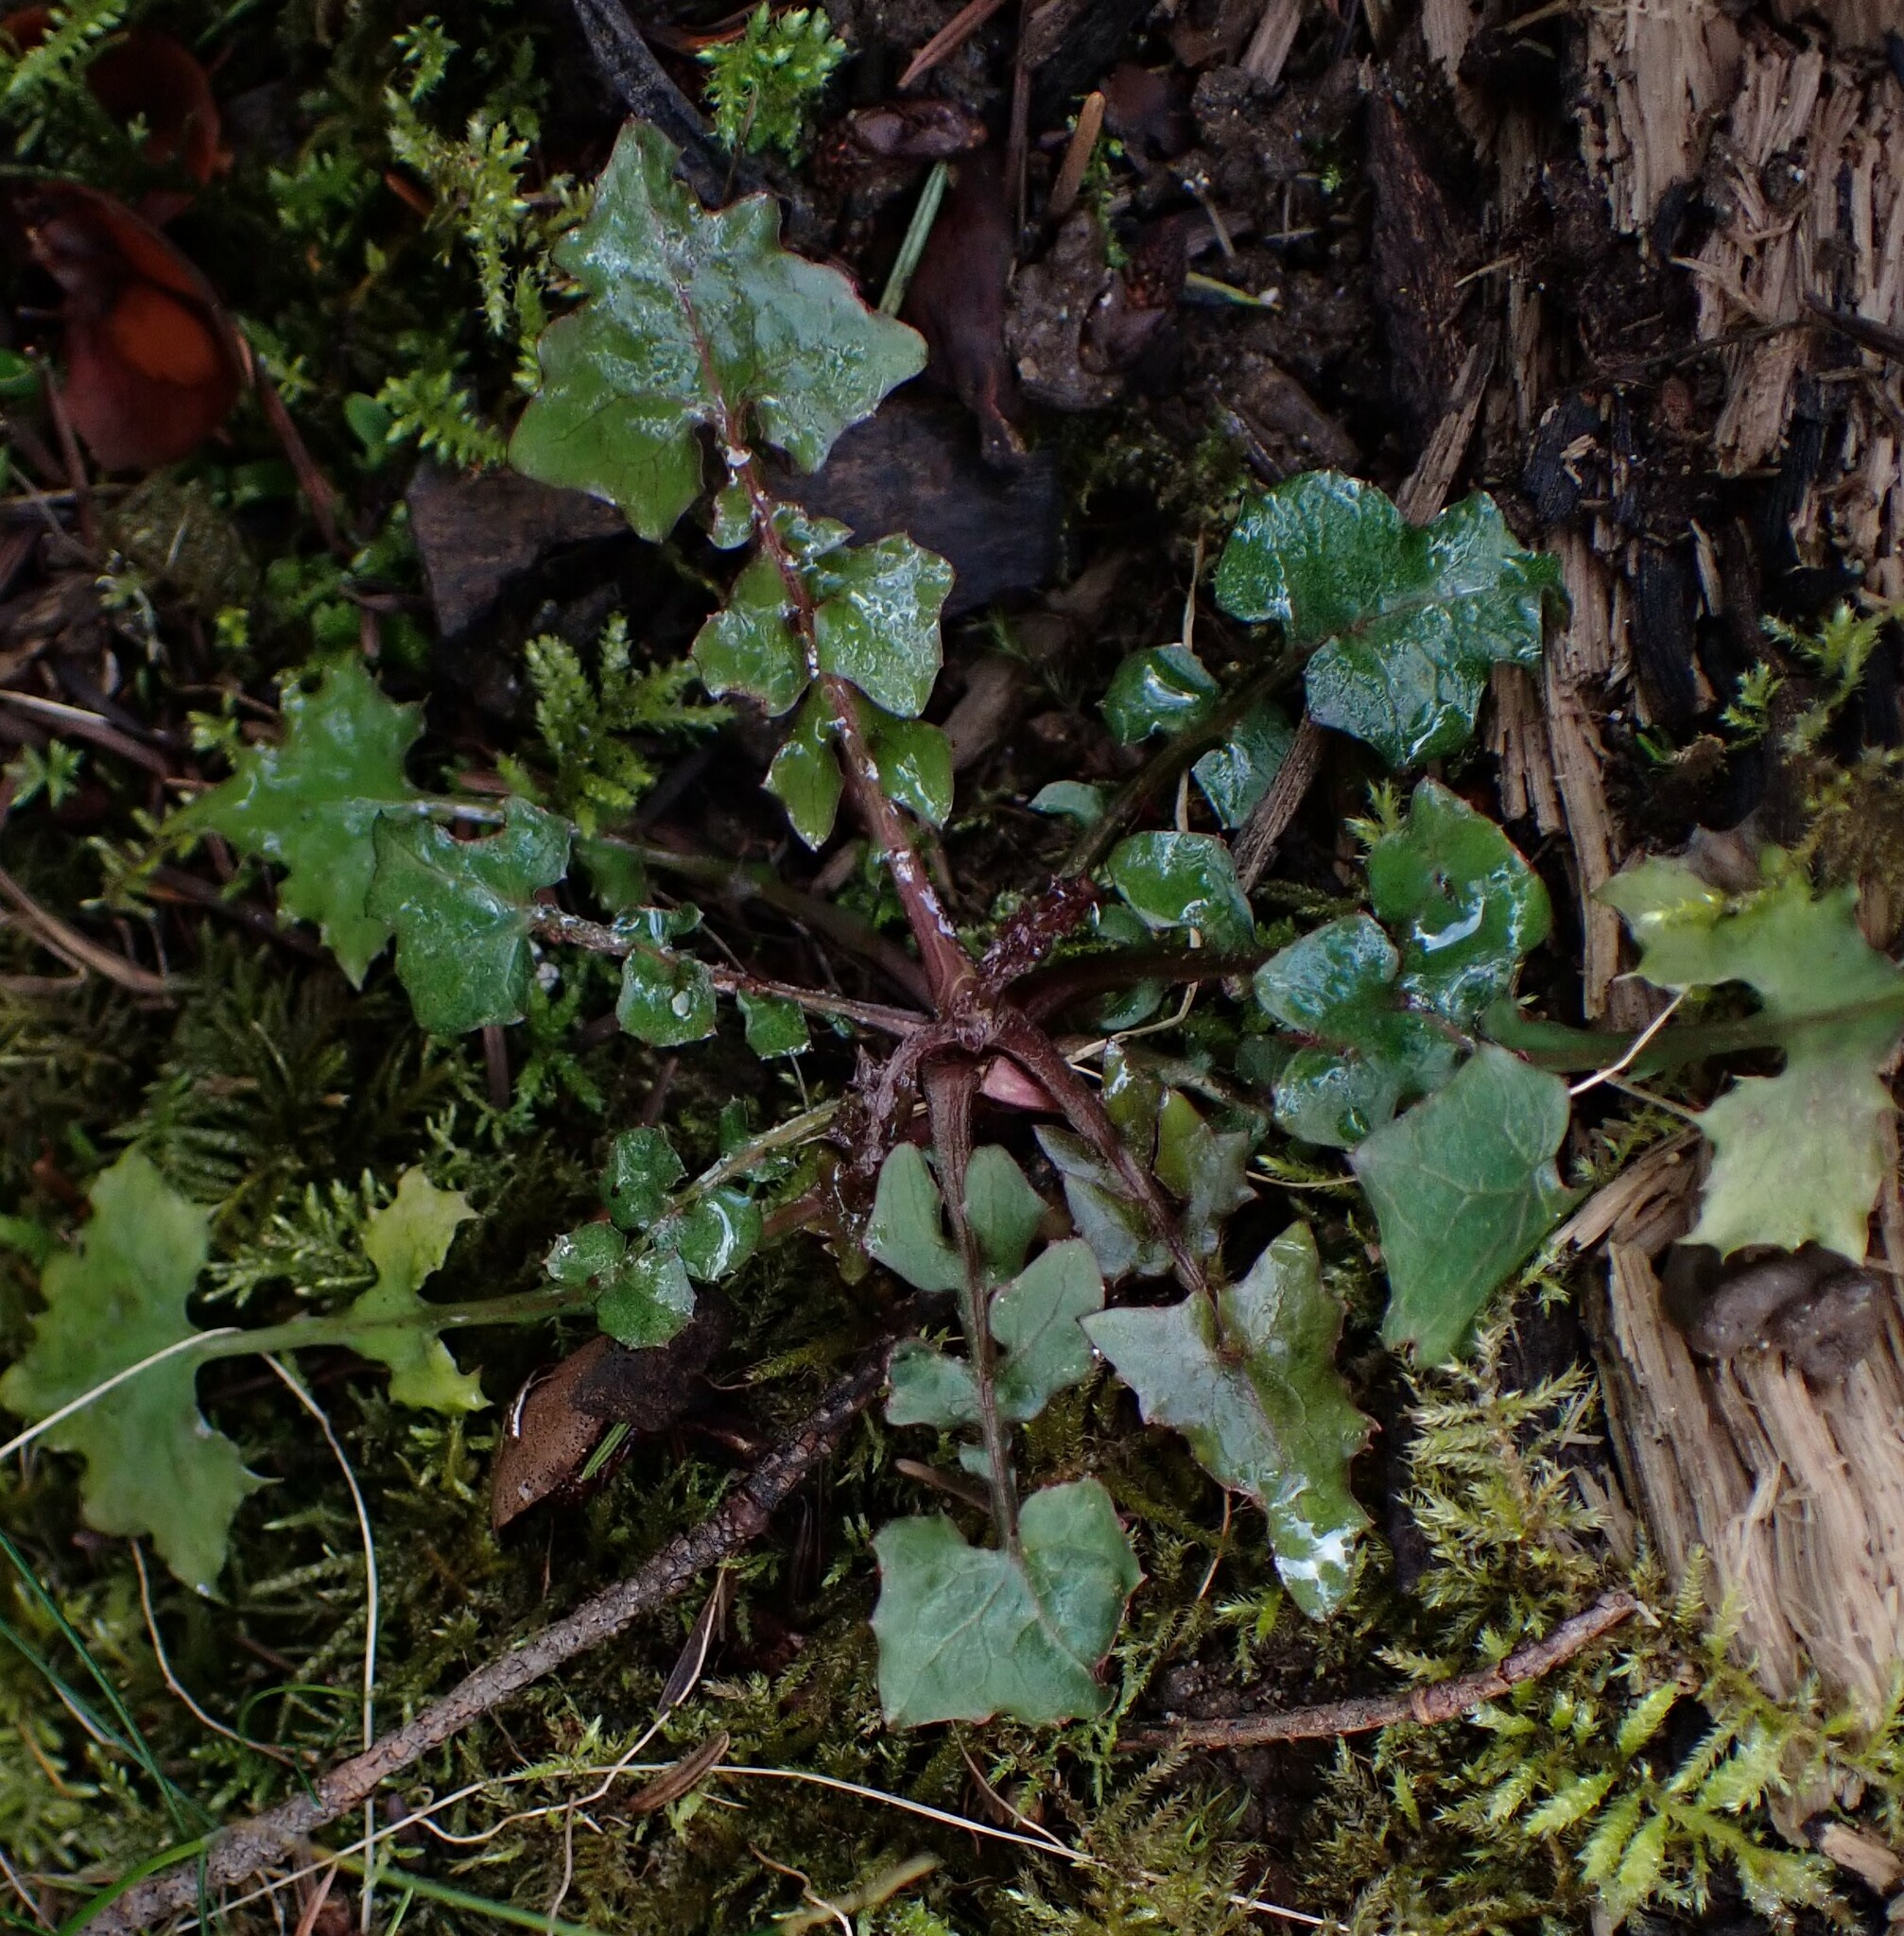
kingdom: Plantae
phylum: Tracheophyta
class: Magnoliopsida
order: Asterales
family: Asteraceae
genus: Mycelis
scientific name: Mycelis muralis
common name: Wall lettuce
